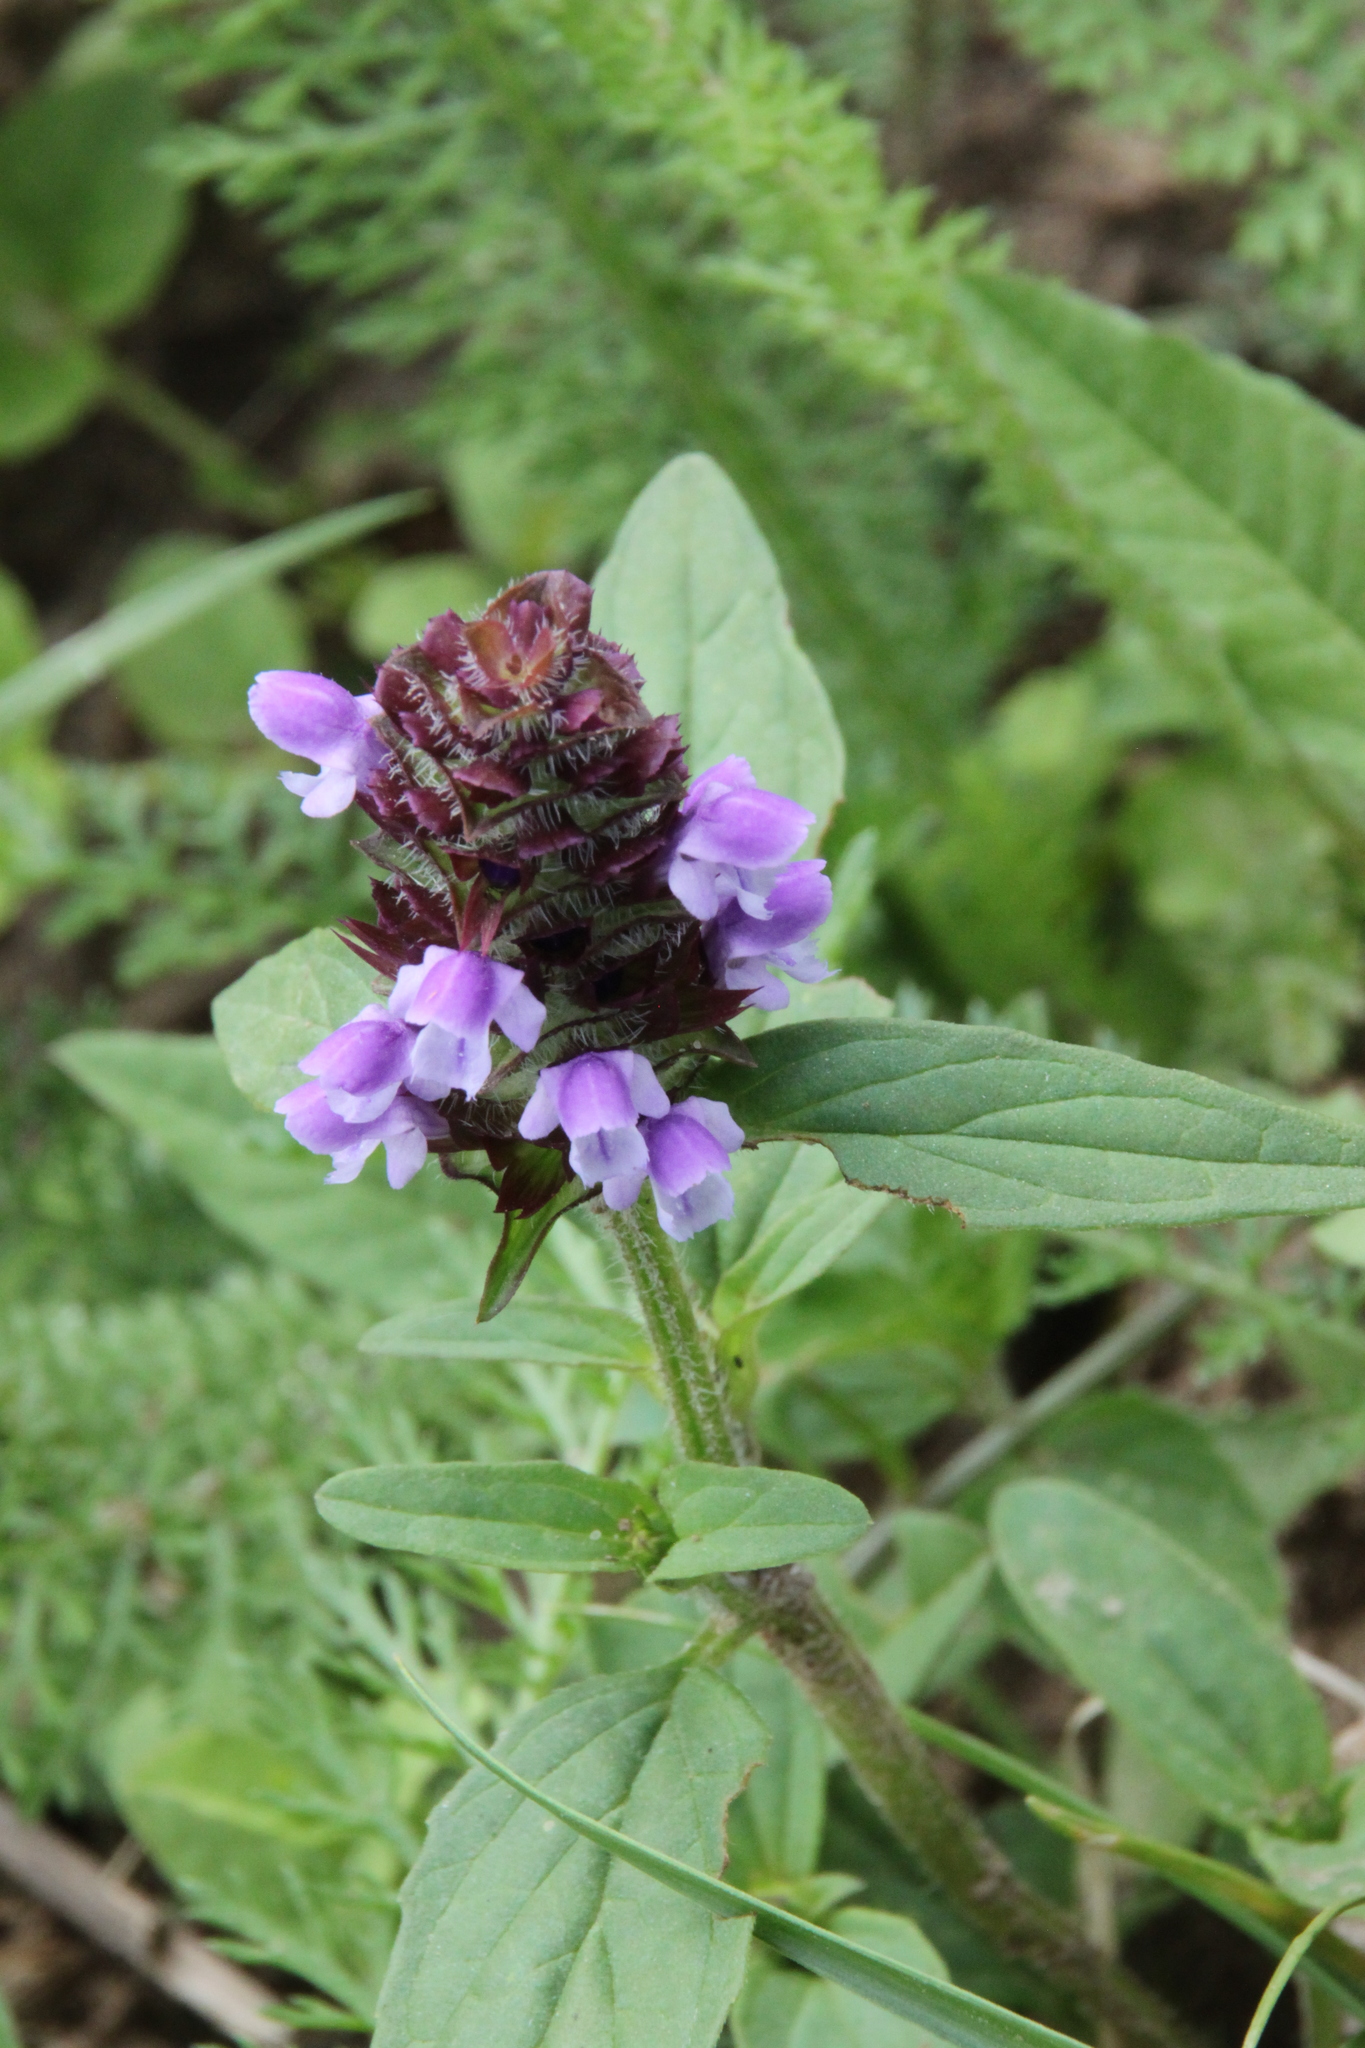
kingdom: Plantae
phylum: Tracheophyta
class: Magnoliopsida
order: Lamiales
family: Lamiaceae
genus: Prunella
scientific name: Prunella vulgaris
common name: Heal-all
